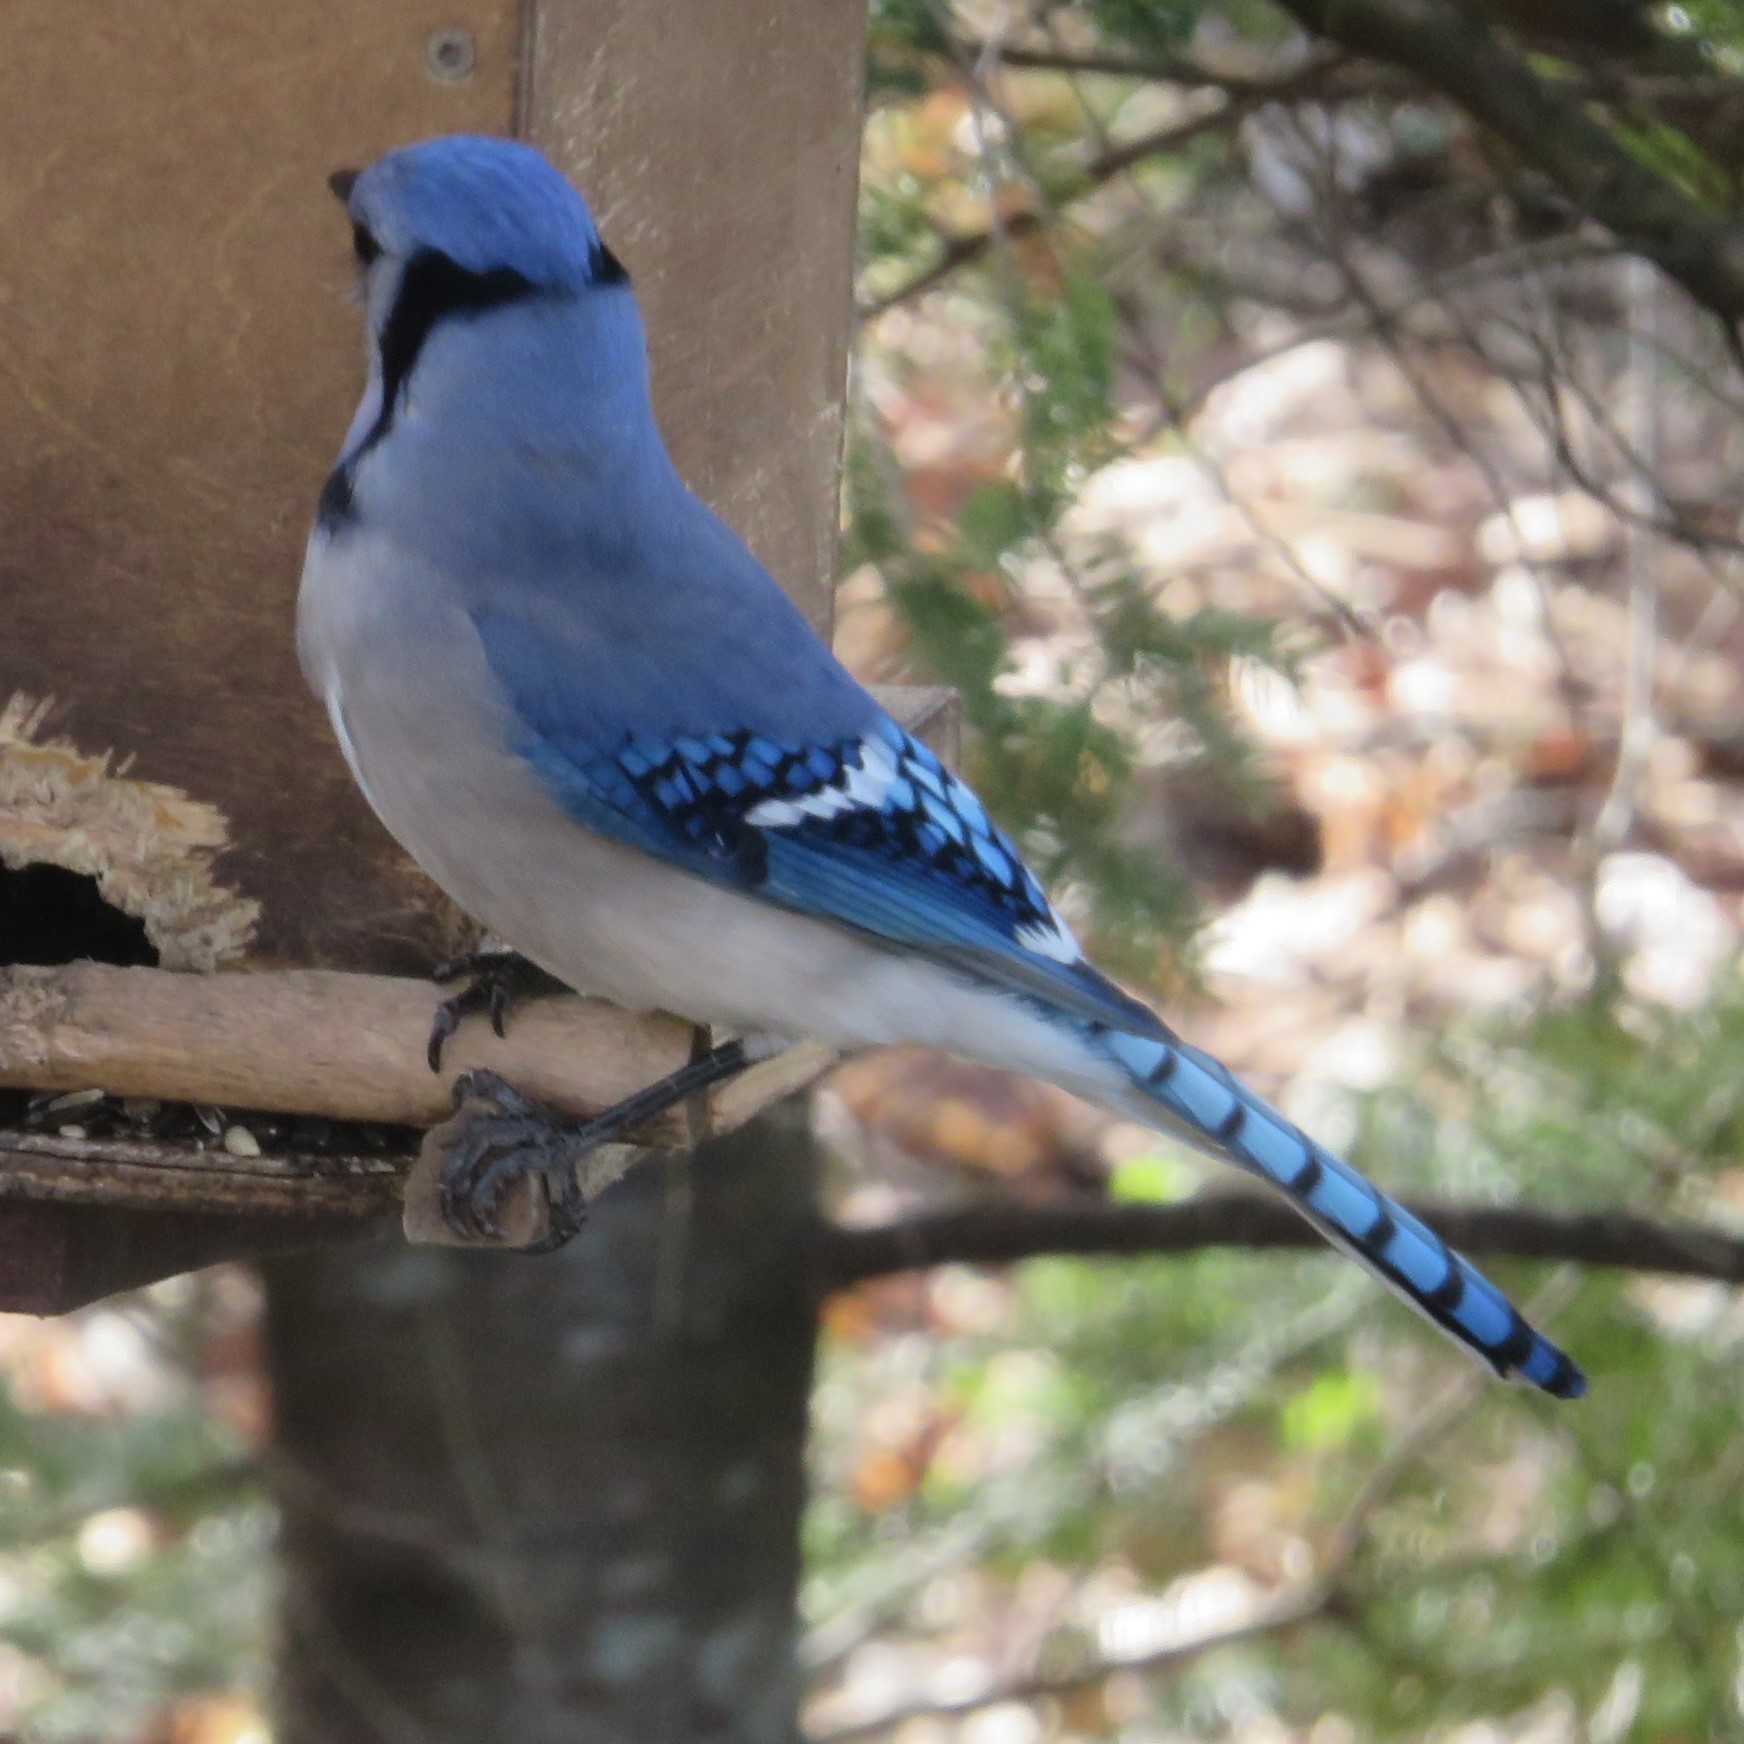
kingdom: Animalia
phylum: Chordata
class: Aves
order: Passeriformes
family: Corvidae
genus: Cyanocitta
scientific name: Cyanocitta cristata
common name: Blue jay
